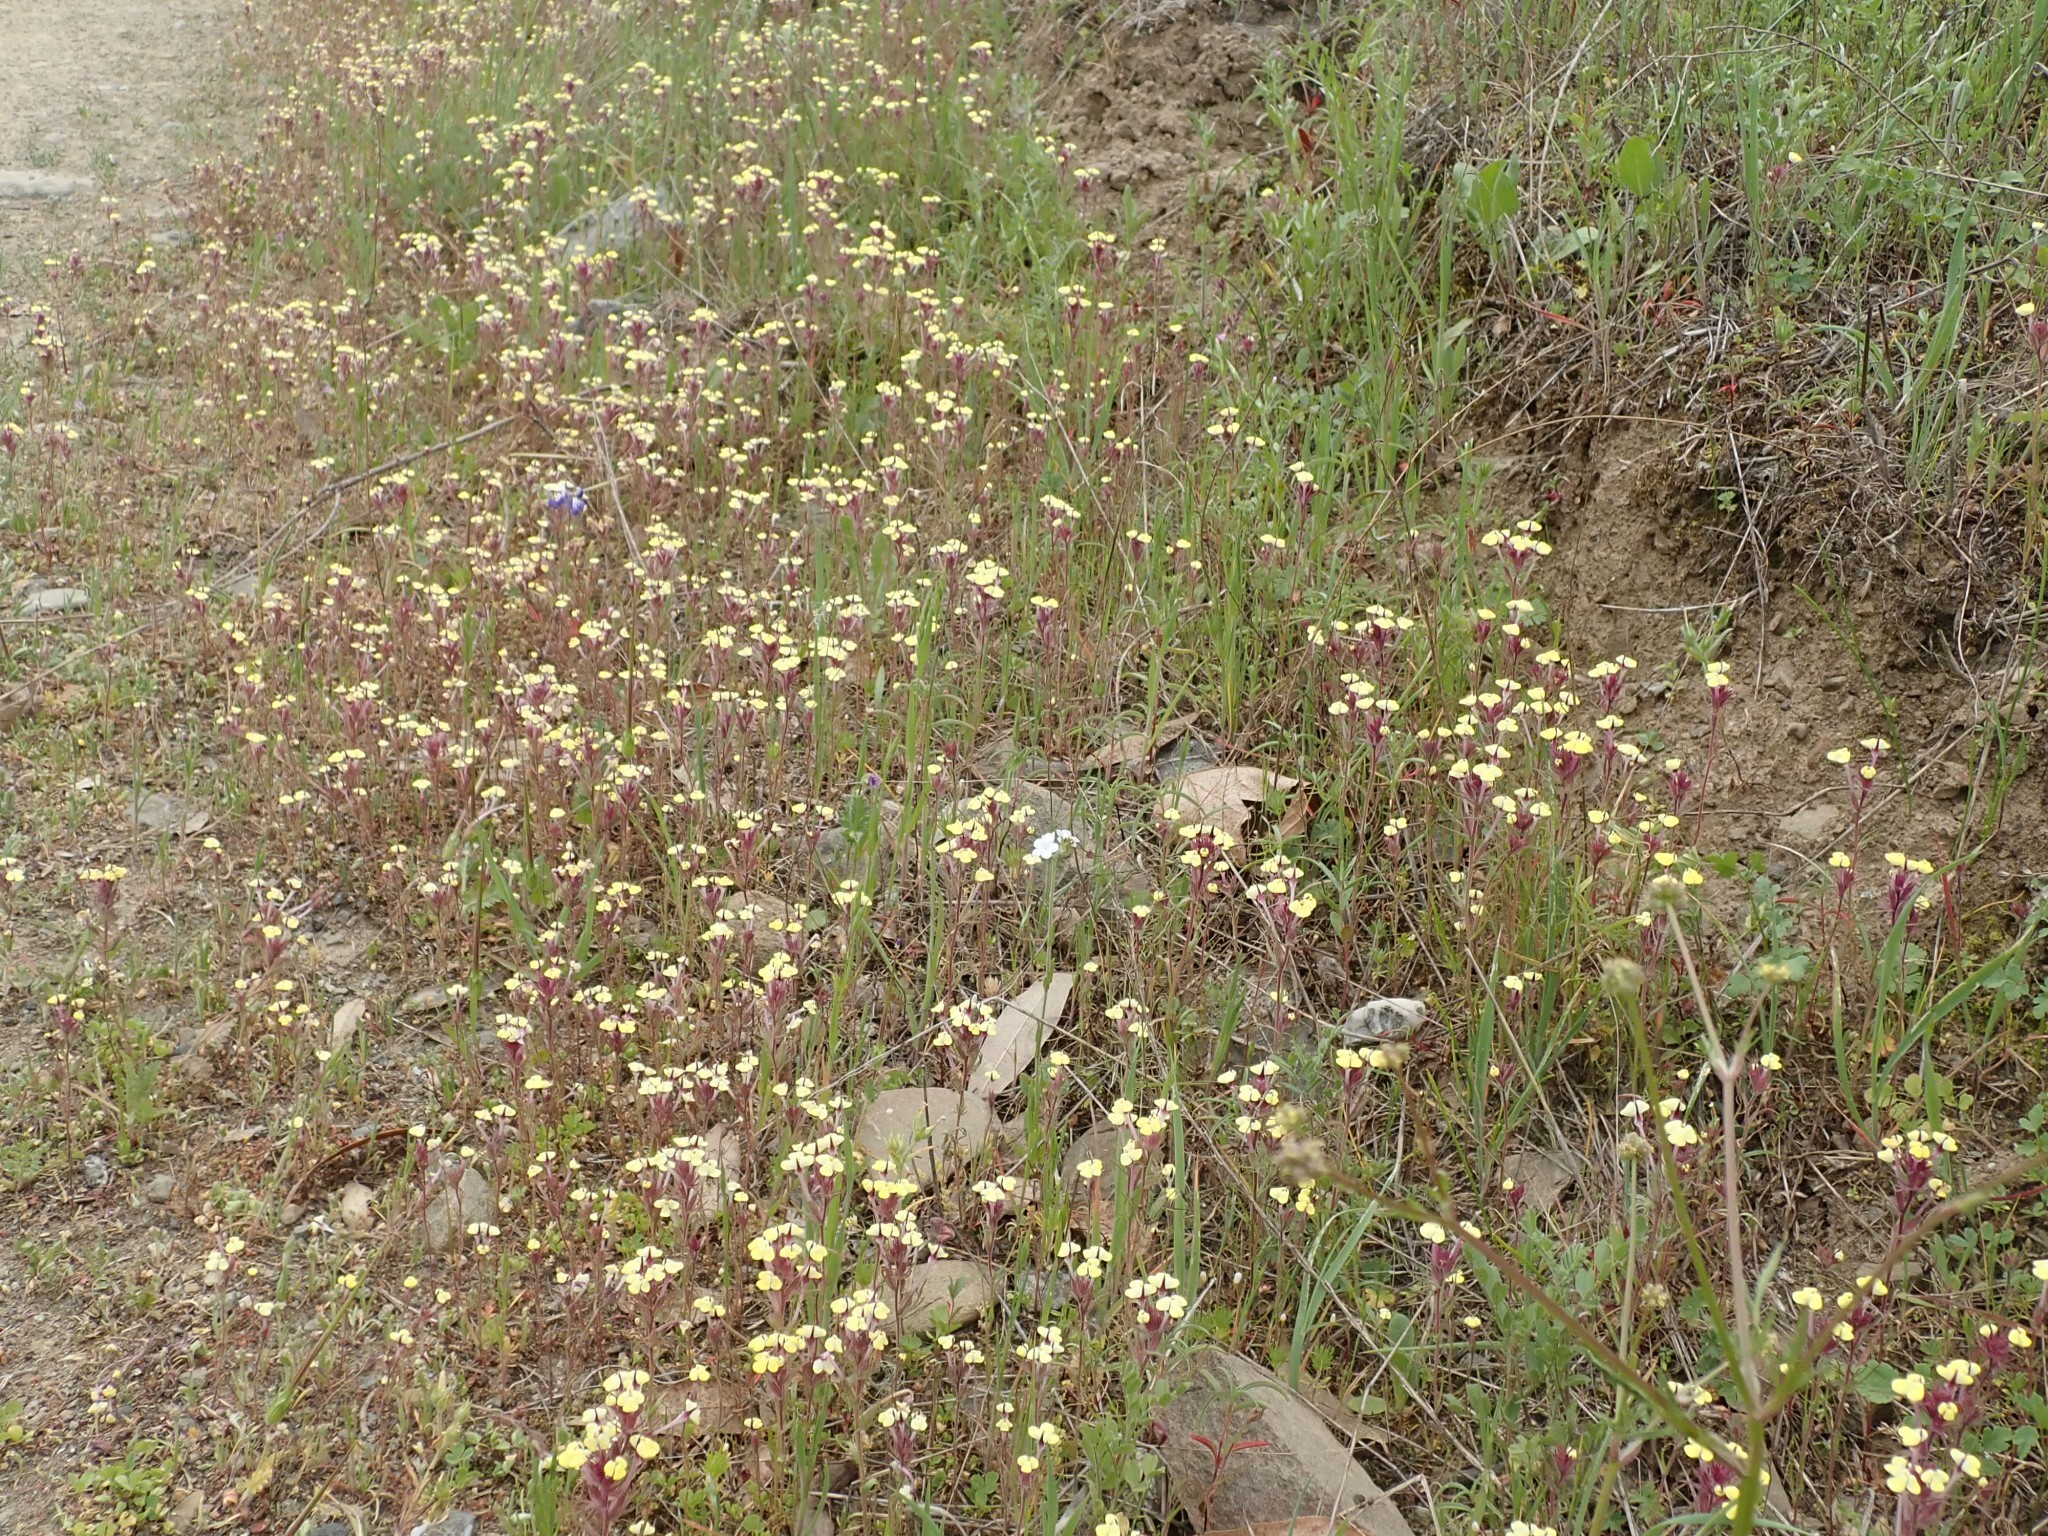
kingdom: Plantae
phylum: Tracheophyta
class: Magnoliopsida
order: Lamiales
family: Orobanchaceae
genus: Triphysaria
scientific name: Triphysaria eriantha
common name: Johnny-tuck
